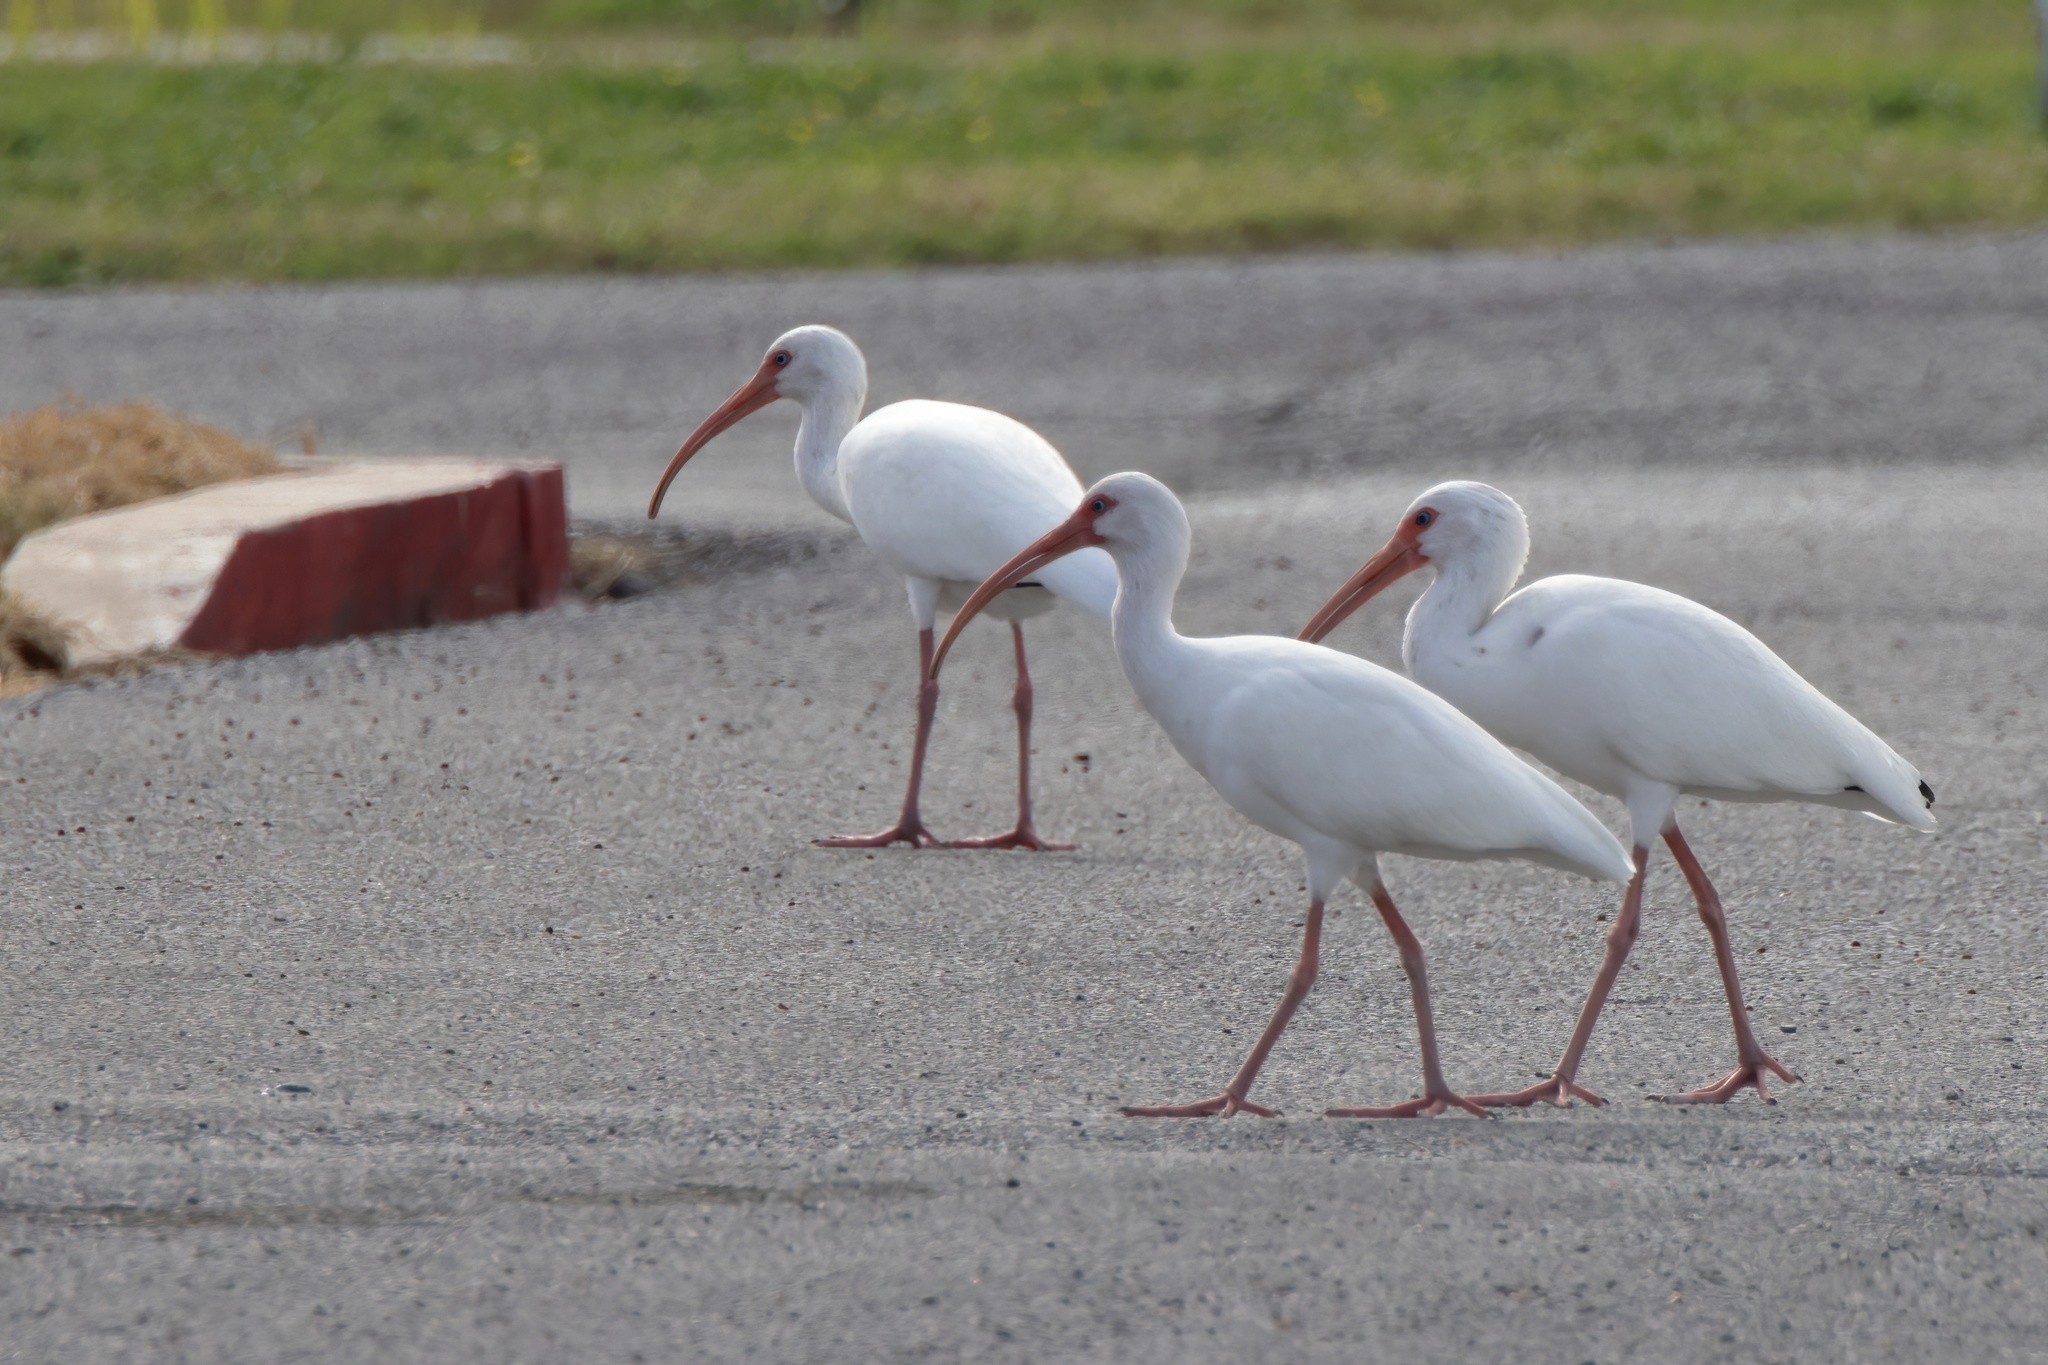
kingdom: Animalia
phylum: Chordata
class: Aves
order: Pelecaniformes
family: Threskiornithidae
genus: Eudocimus
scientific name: Eudocimus albus
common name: White ibis
